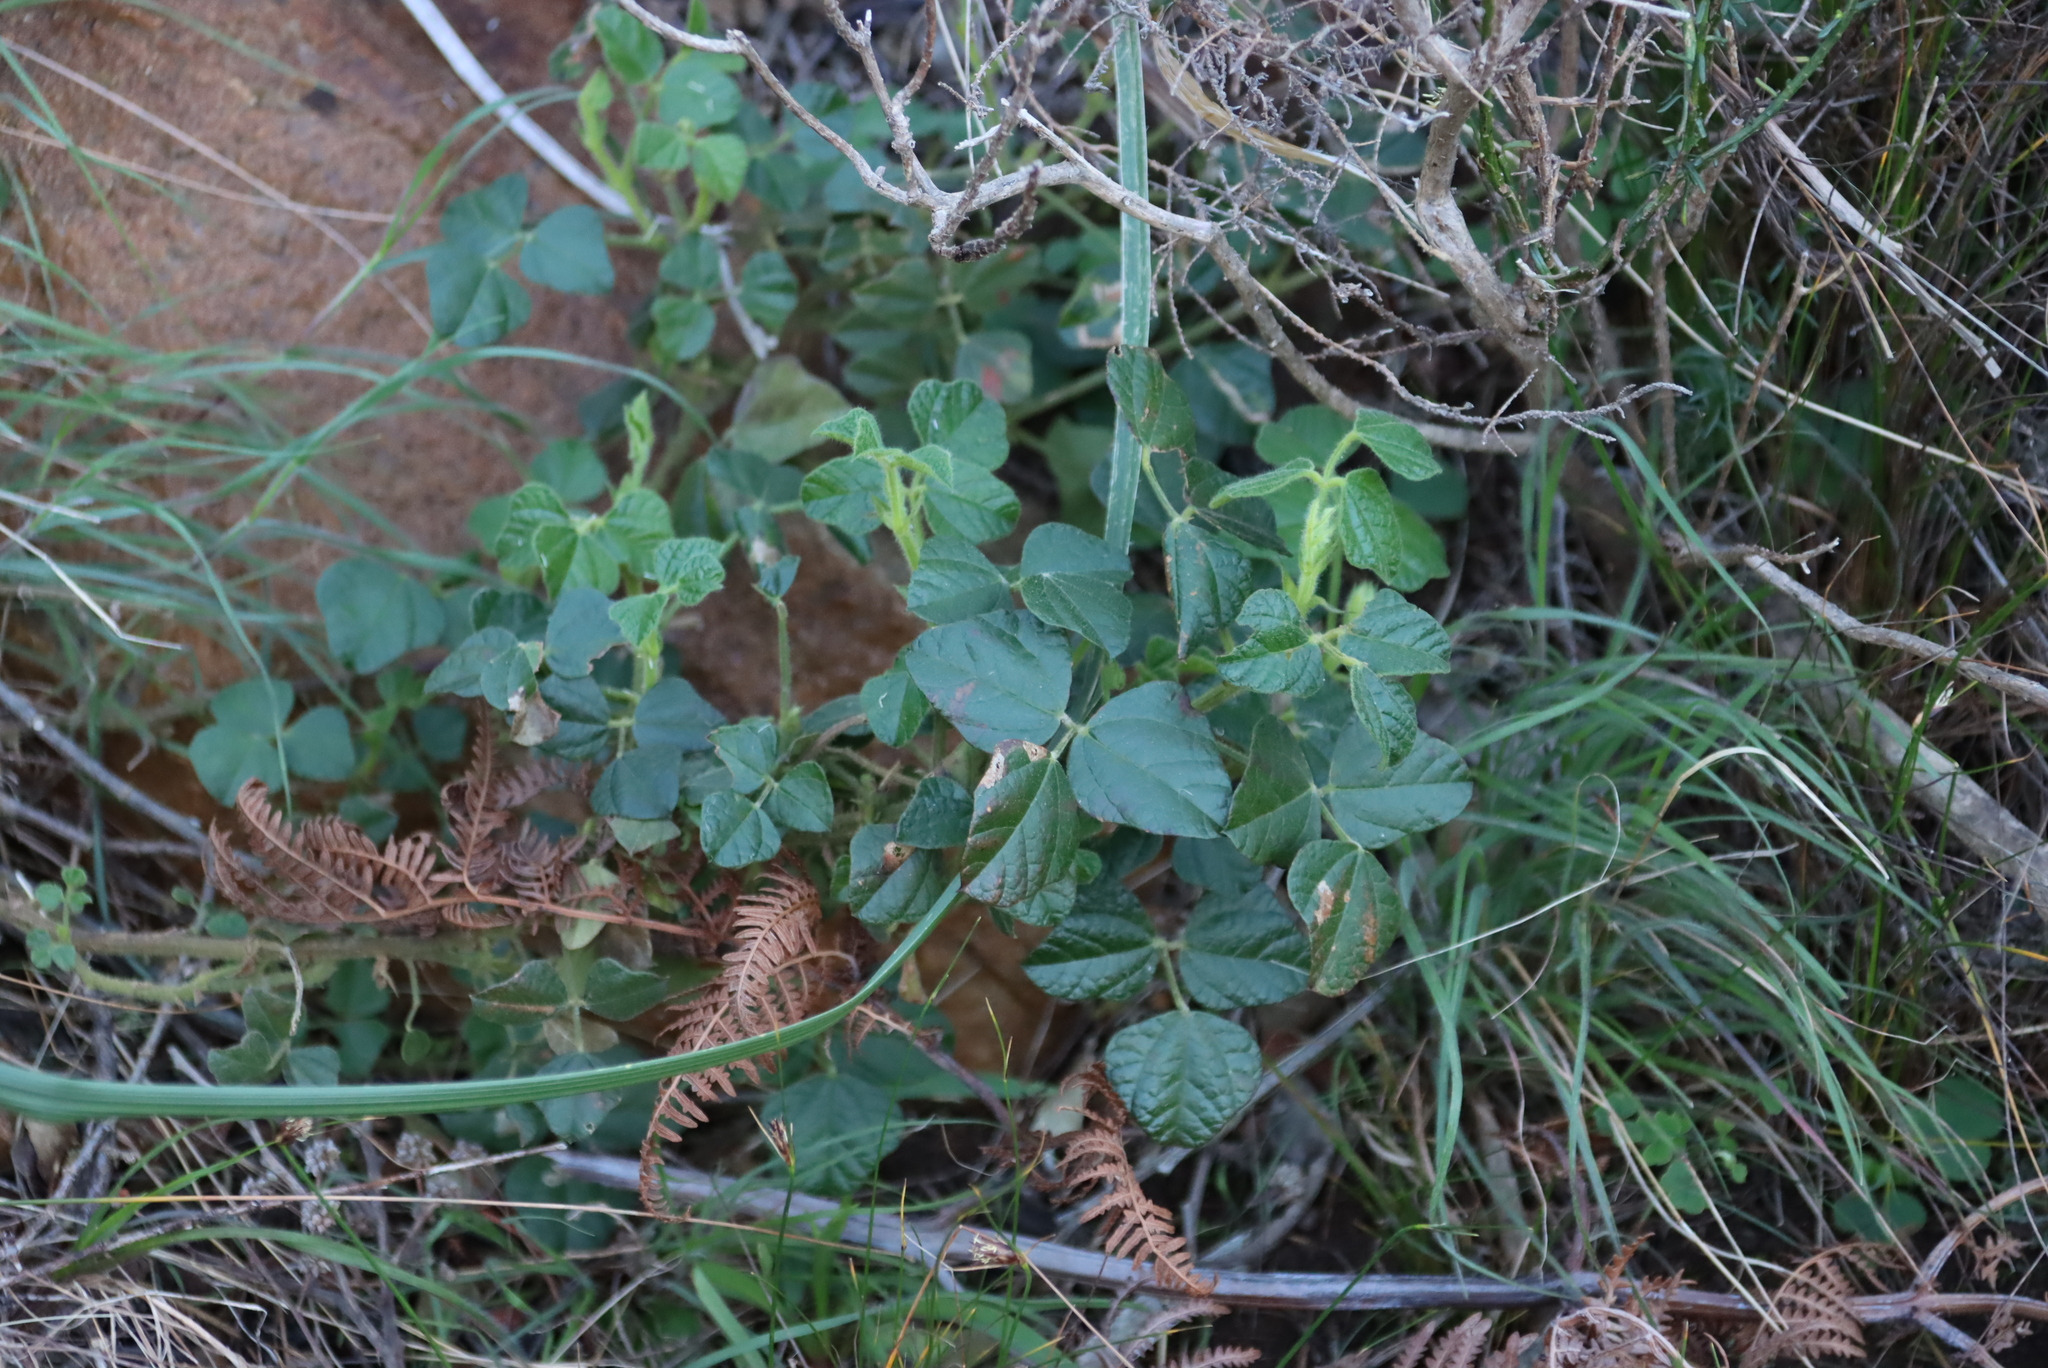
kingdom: Plantae
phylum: Tracheophyta
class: Magnoliopsida
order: Fabales
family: Fabaceae
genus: Bolusafra
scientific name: Bolusafra bituminosa
